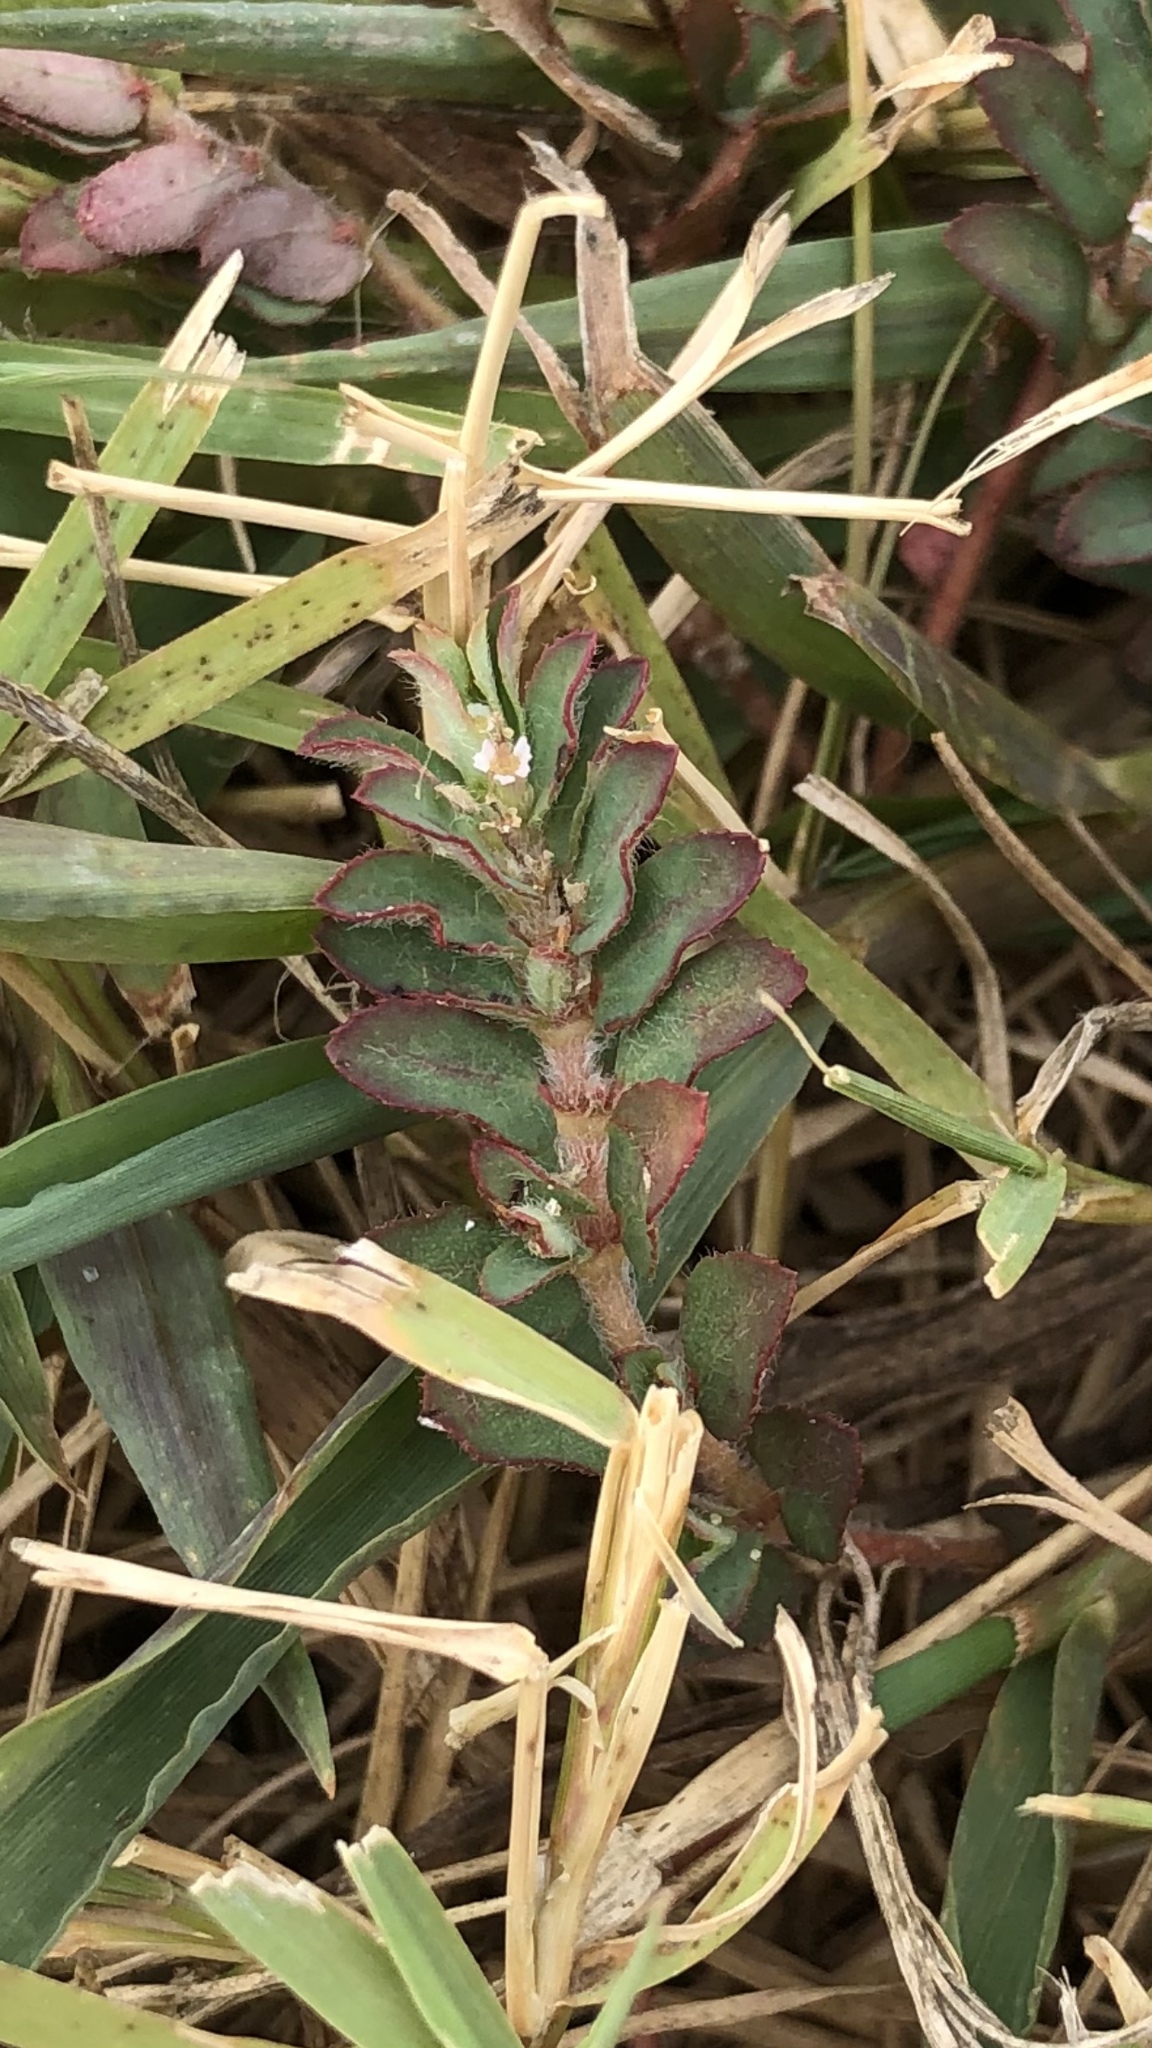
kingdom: Plantae
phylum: Tracheophyta
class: Magnoliopsida
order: Malpighiales
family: Euphorbiaceae
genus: Euphorbia
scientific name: Euphorbia maculata
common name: Spotted spurge
